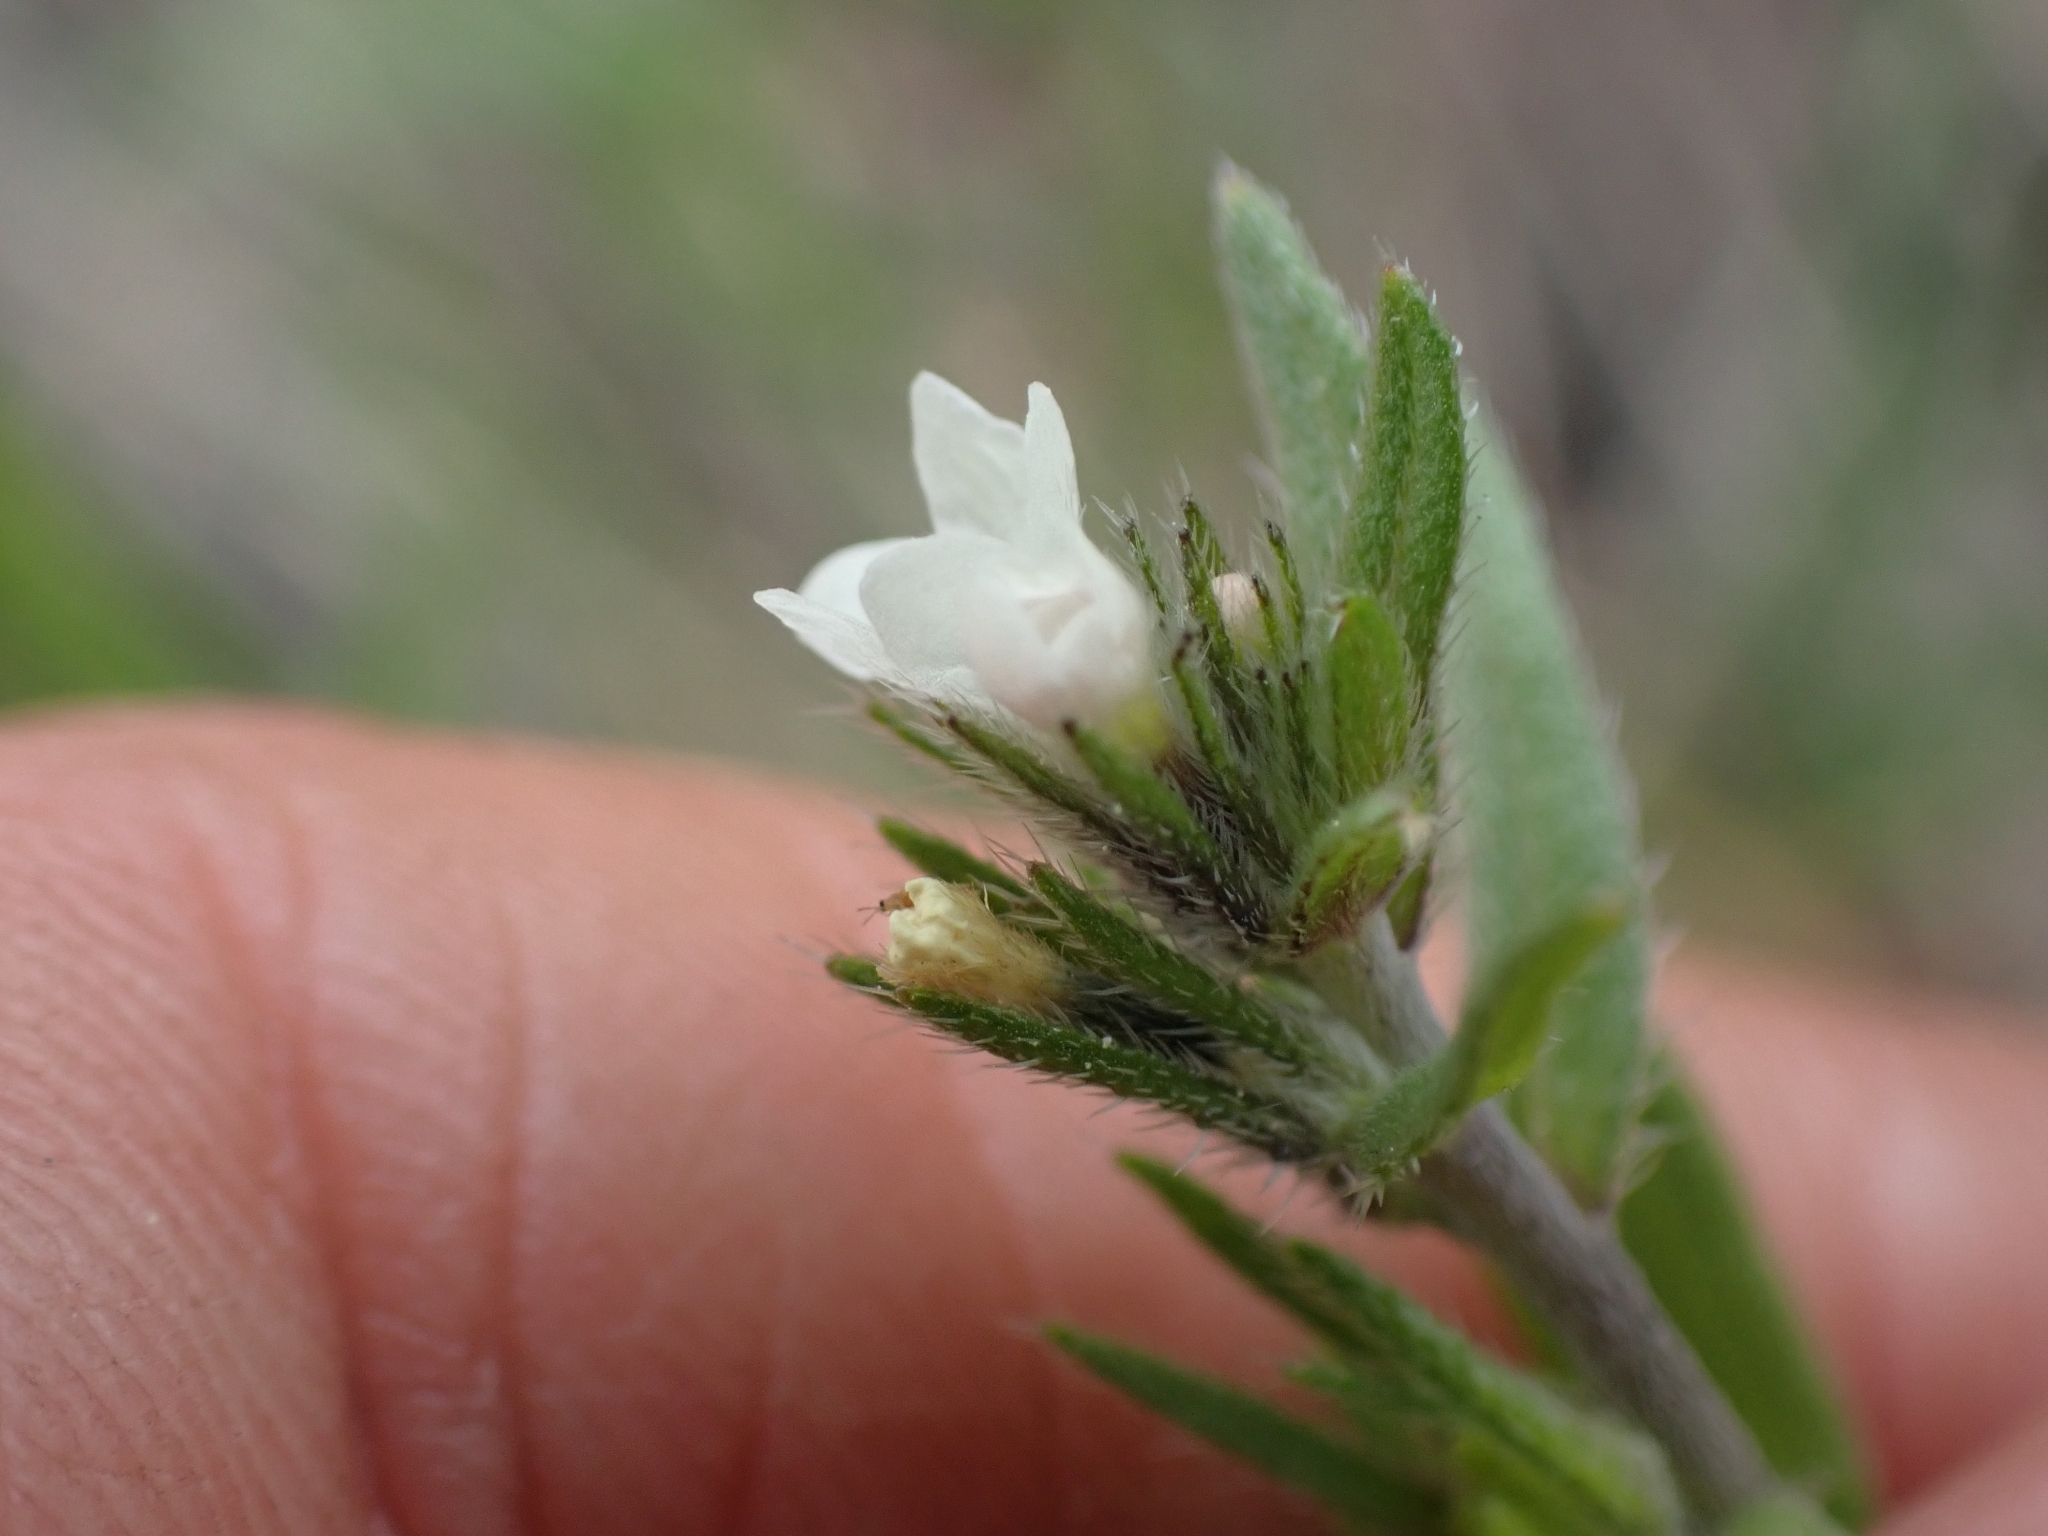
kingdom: Plantae
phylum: Tracheophyta
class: Magnoliopsida
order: Boraginales
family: Boraginaceae
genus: Buglossoides
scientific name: Buglossoides arvensis
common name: Corn gromwell
